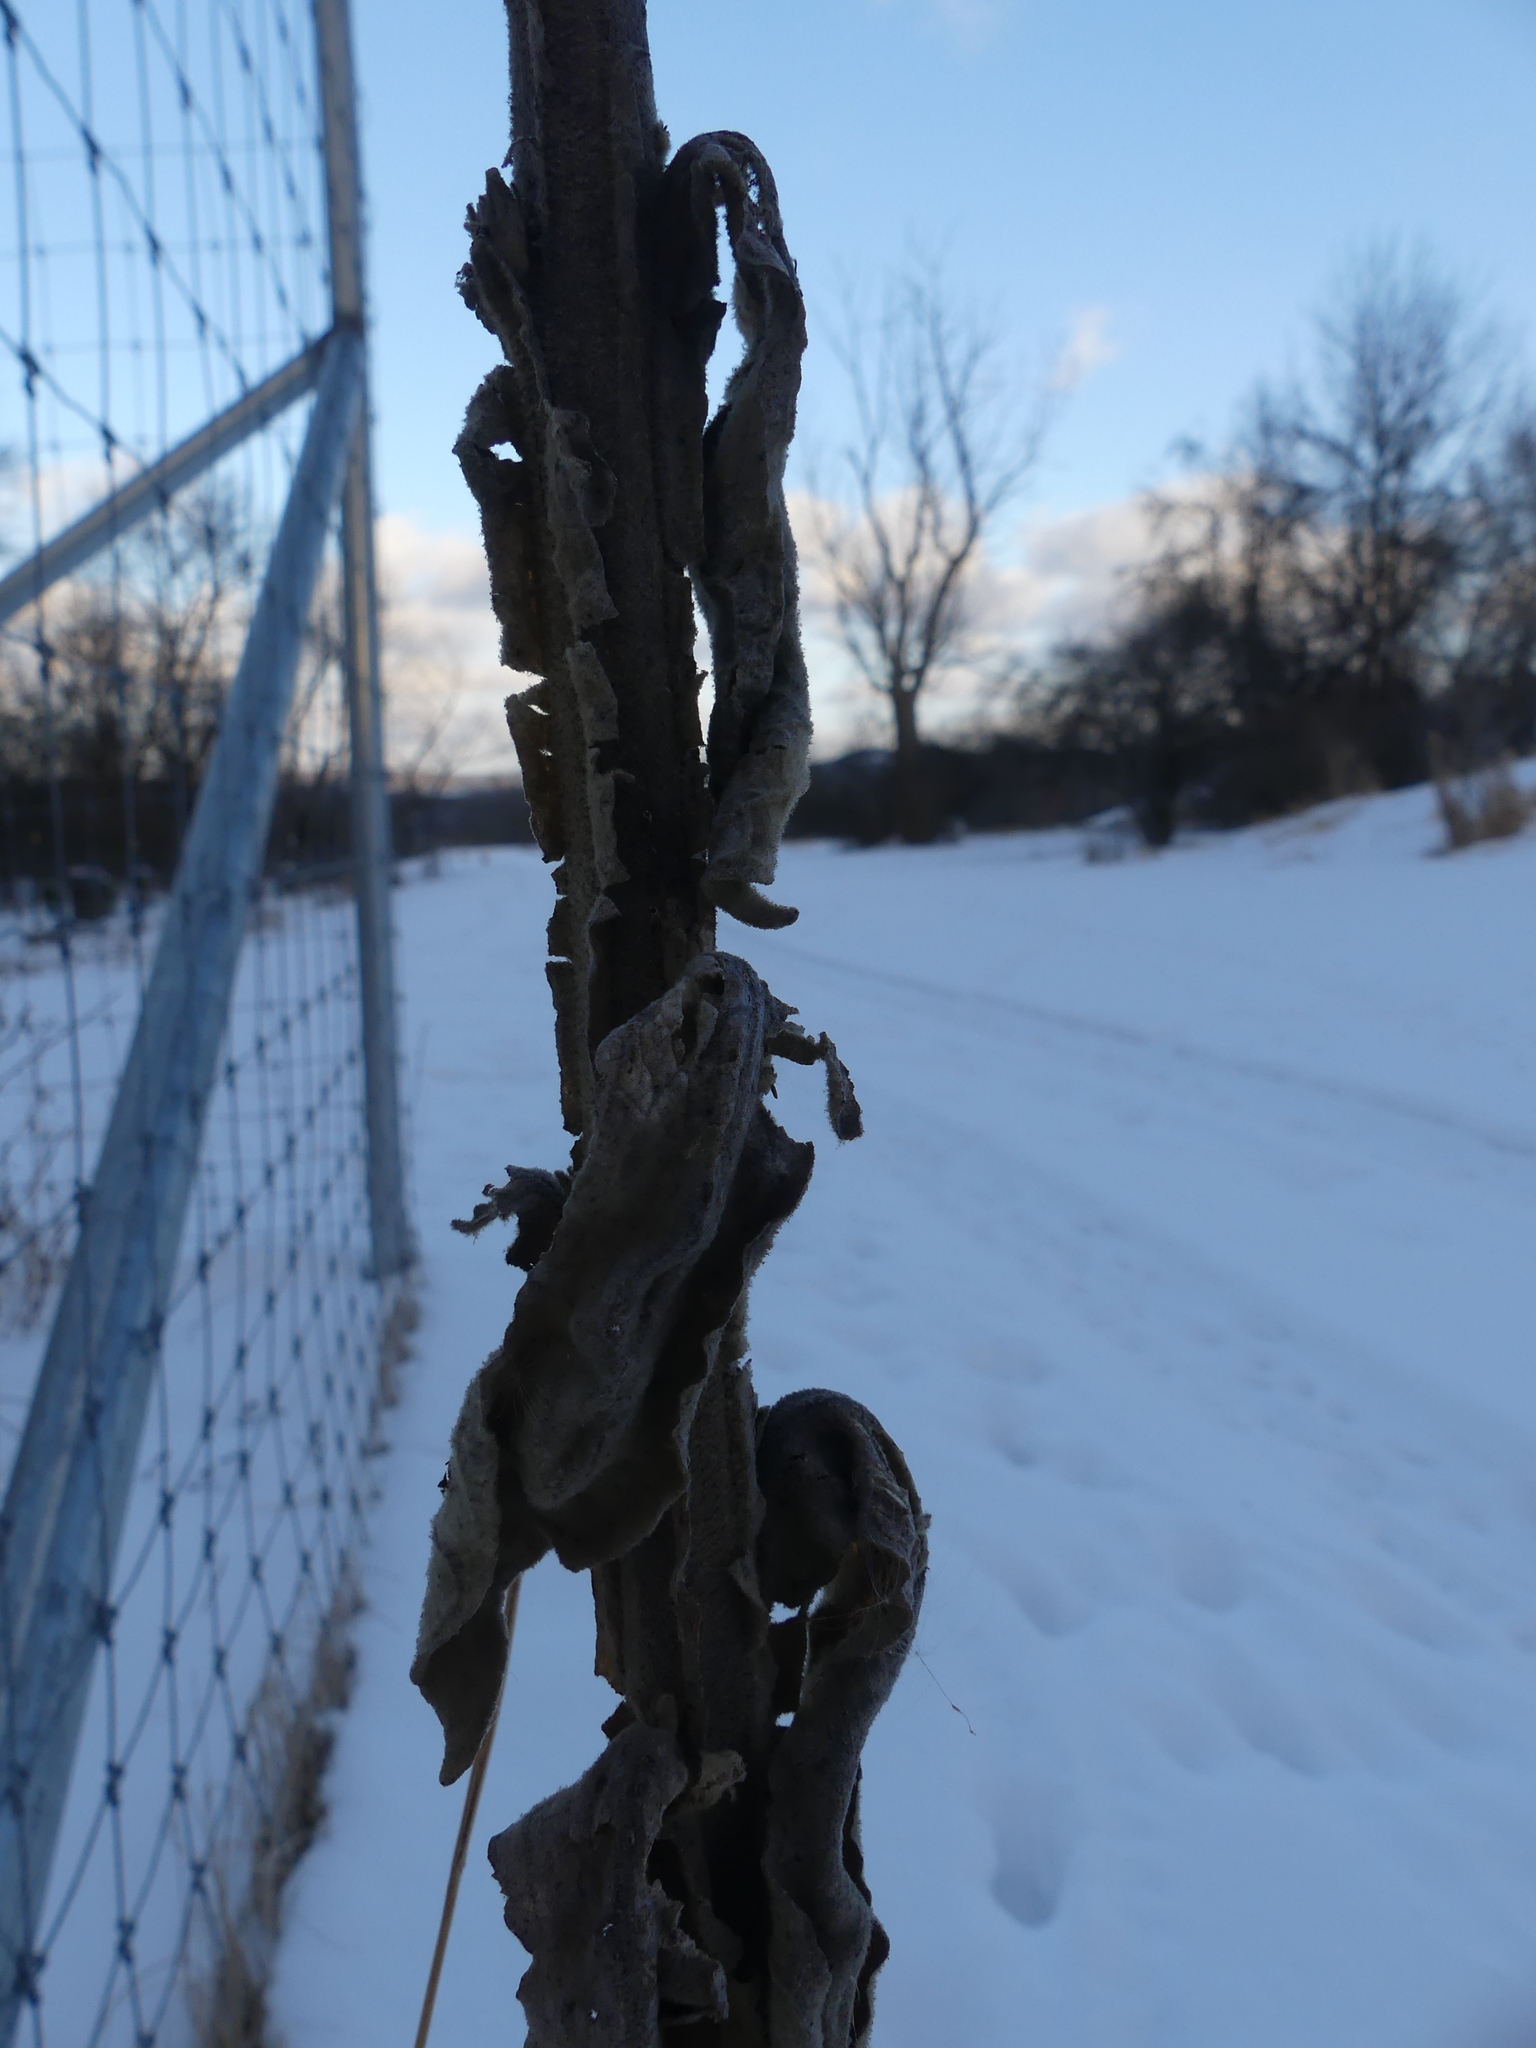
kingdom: Plantae
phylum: Tracheophyta
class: Magnoliopsida
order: Lamiales
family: Scrophulariaceae
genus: Verbascum
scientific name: Verbascum thapsus
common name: Common mullein
